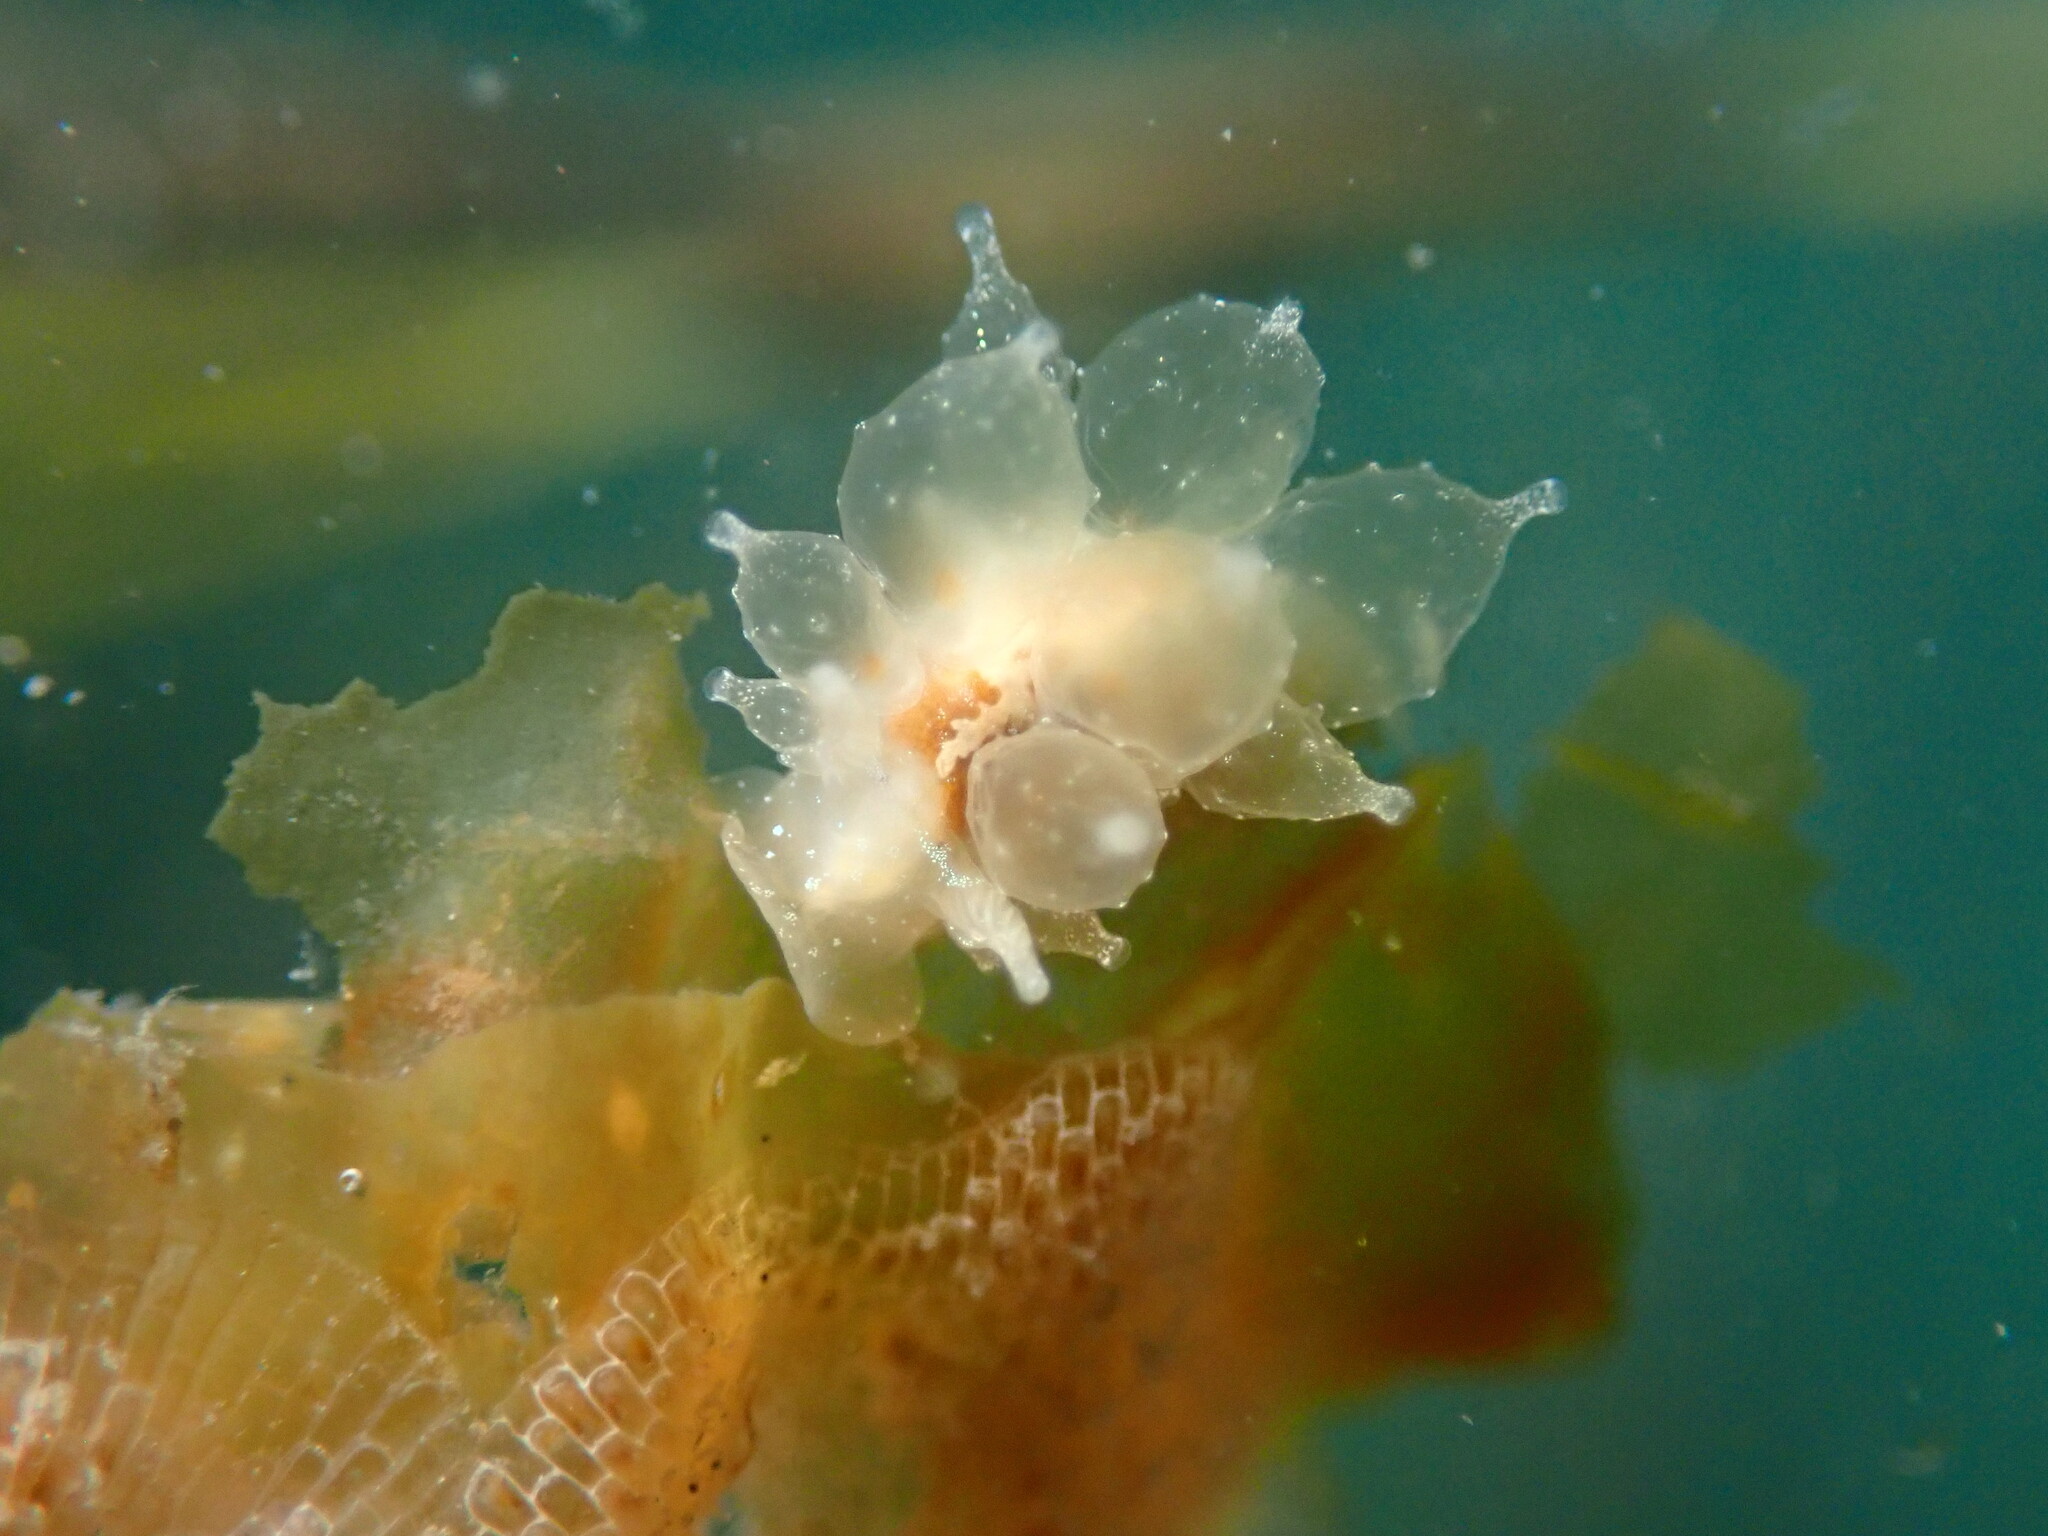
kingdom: Animalia
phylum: Mollusca
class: Gastropoda
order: Nudibranchia
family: Dironidae
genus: Dirona
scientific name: Dirona picta
